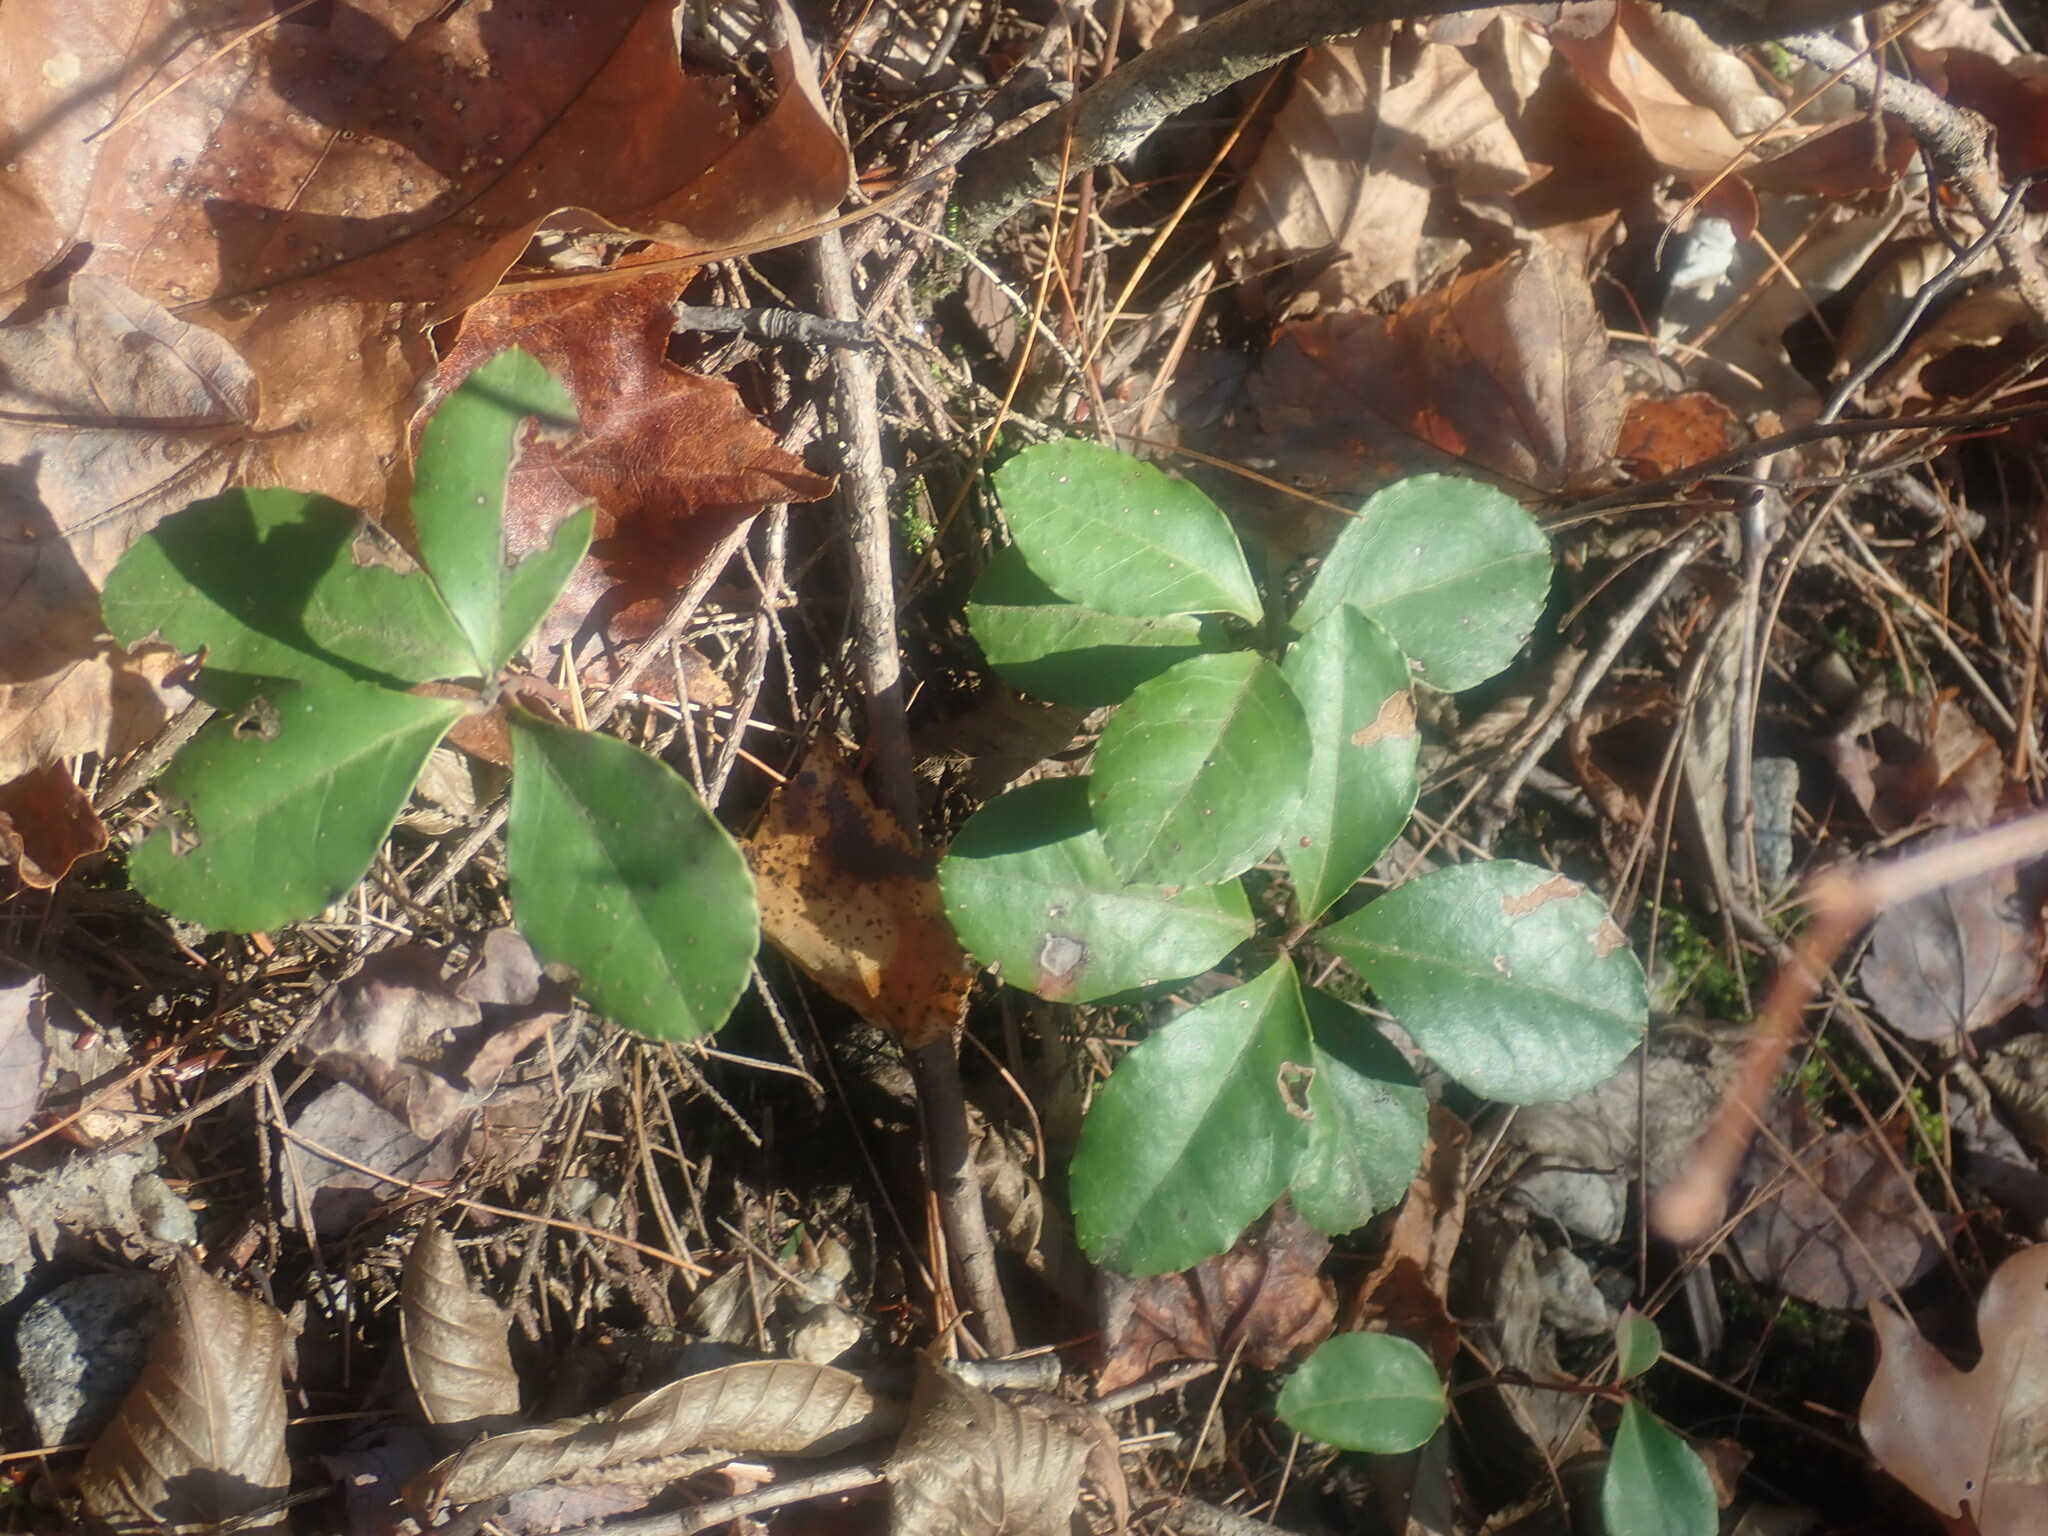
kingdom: Plantae
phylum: Tracheophyta
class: Magnoliopsida
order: Ericales
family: Ericaceae
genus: Gaultheria
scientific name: Gaultheria procumbens
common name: Checkerberry
